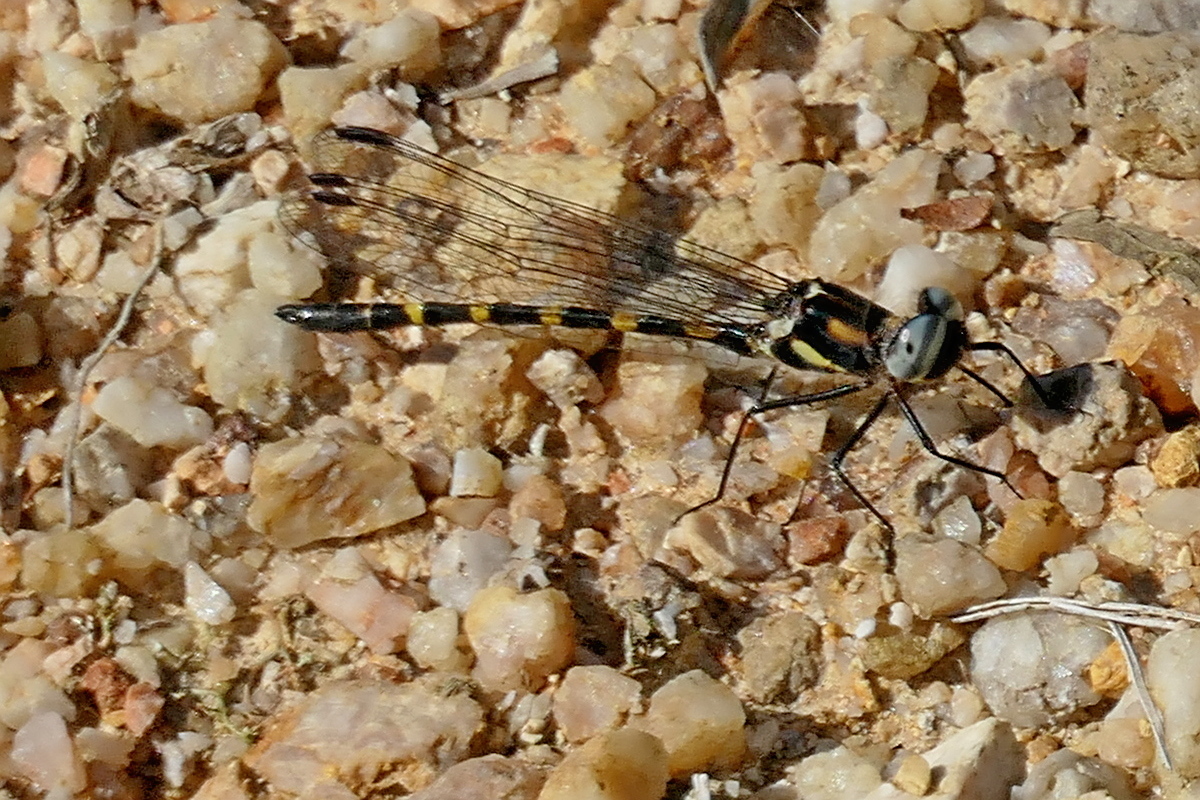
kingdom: Animalia
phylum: Arthropoda
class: Insecta
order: Odonata
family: Corduliidae
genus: Cordulephya
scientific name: Cordulephya pygmaea
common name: Common shutwing
